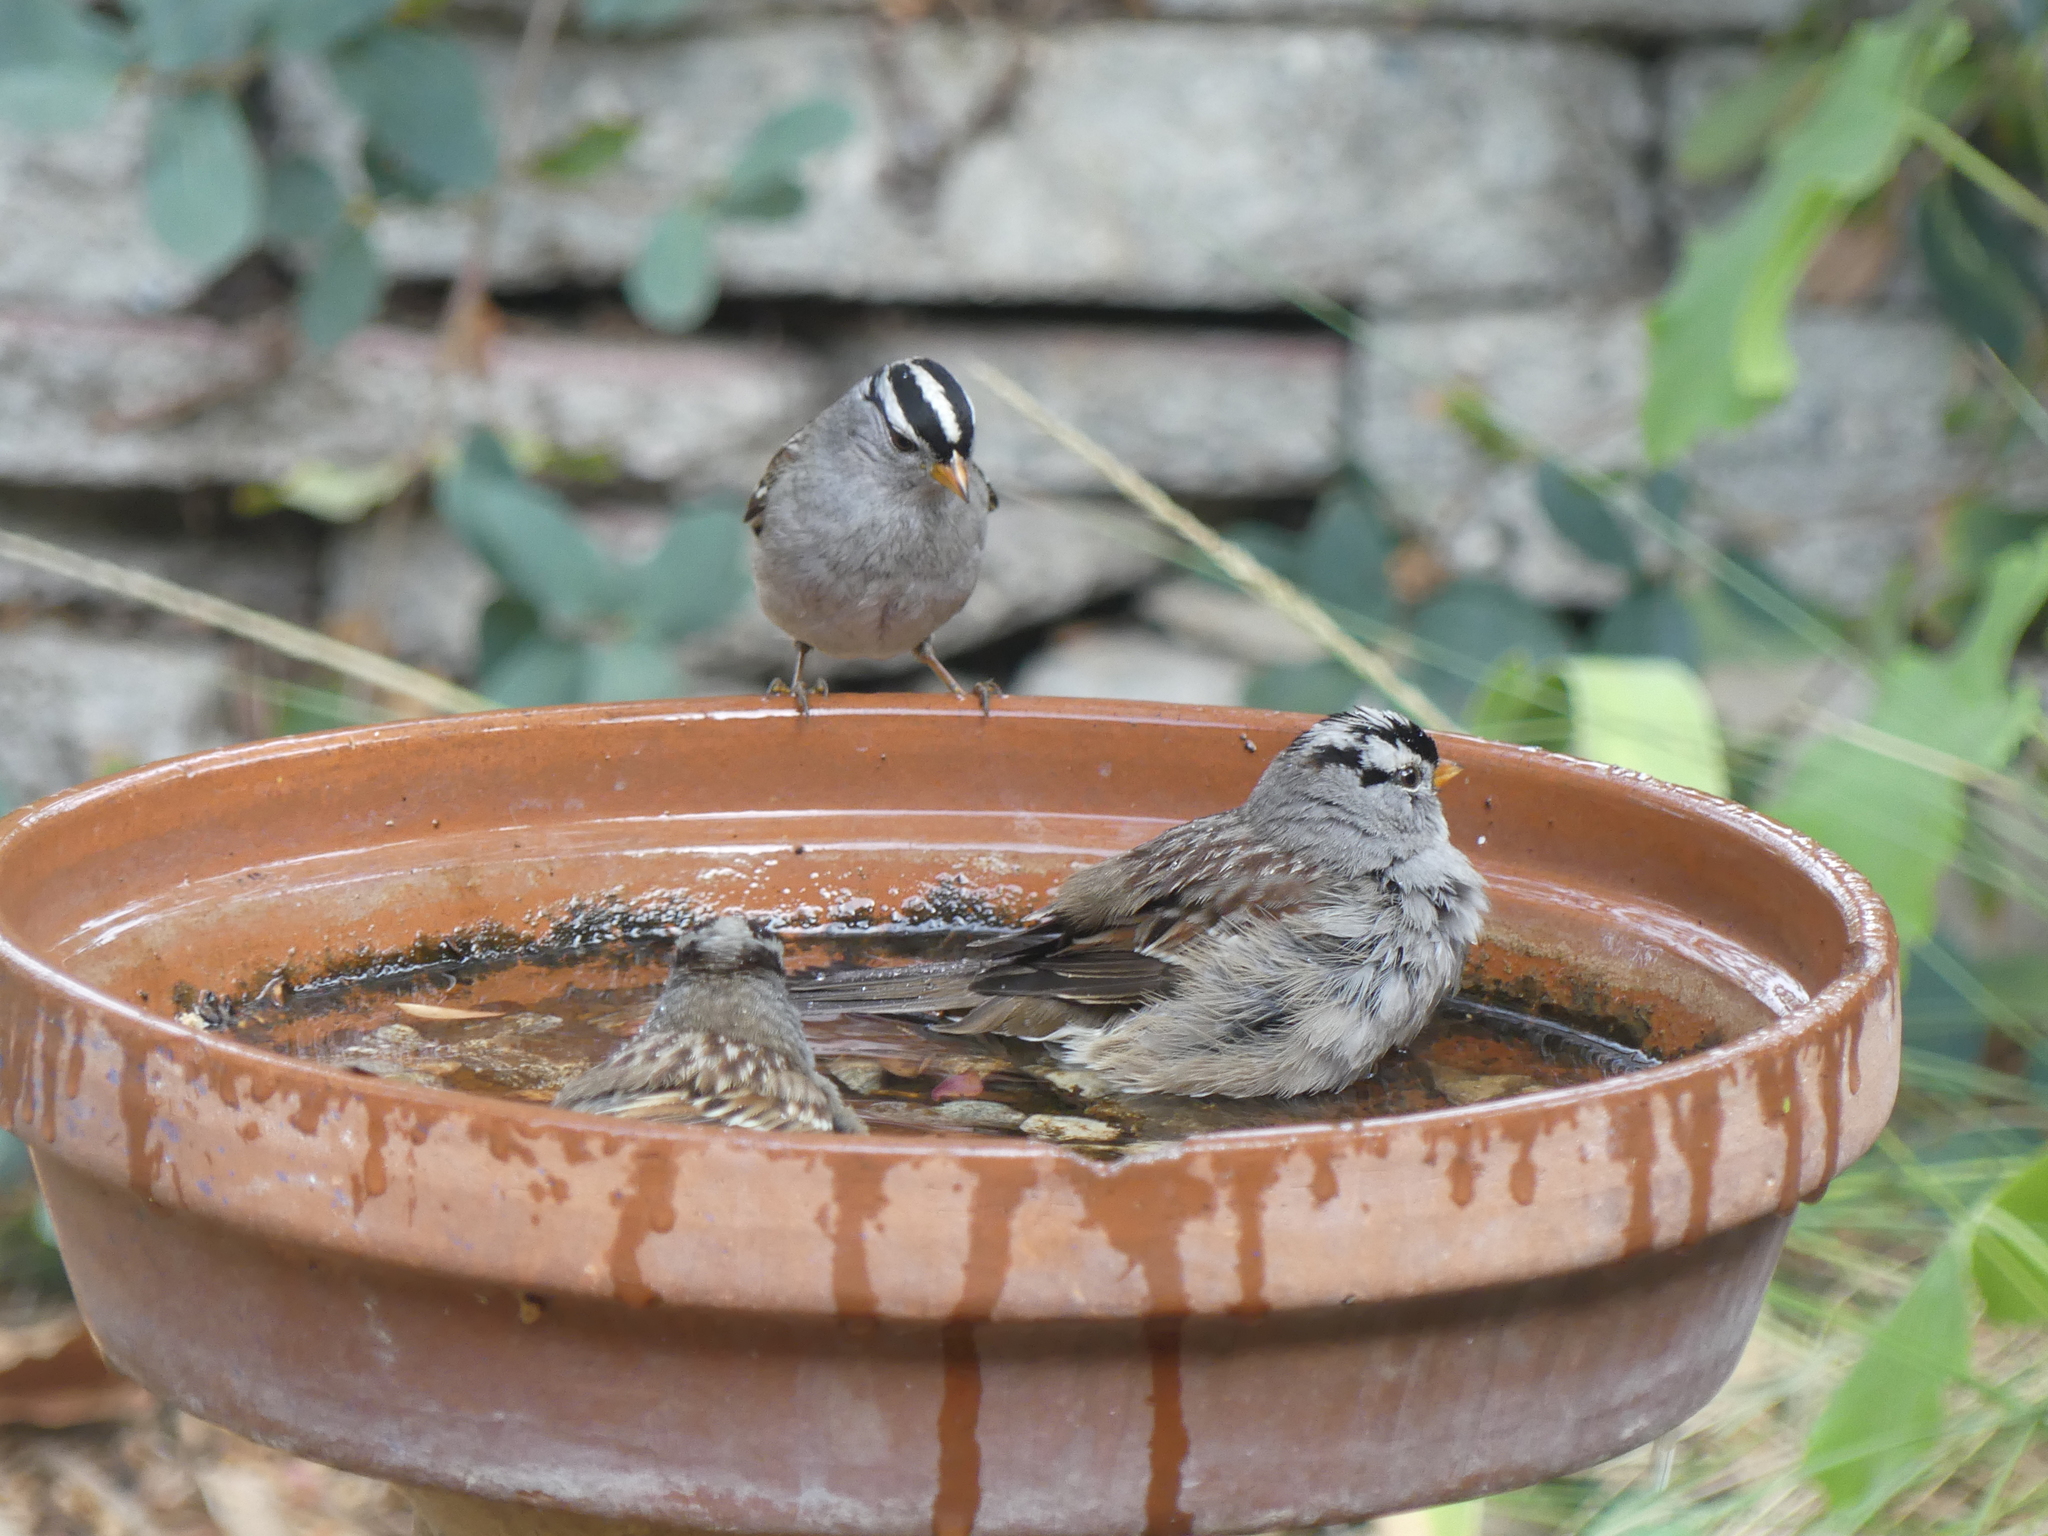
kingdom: Animalia
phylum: Chordata
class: Aves
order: Passeriformes
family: Passerellidae
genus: Zonotrichia
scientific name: Zonotrichia leucophrys
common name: White-crowned sparrow
